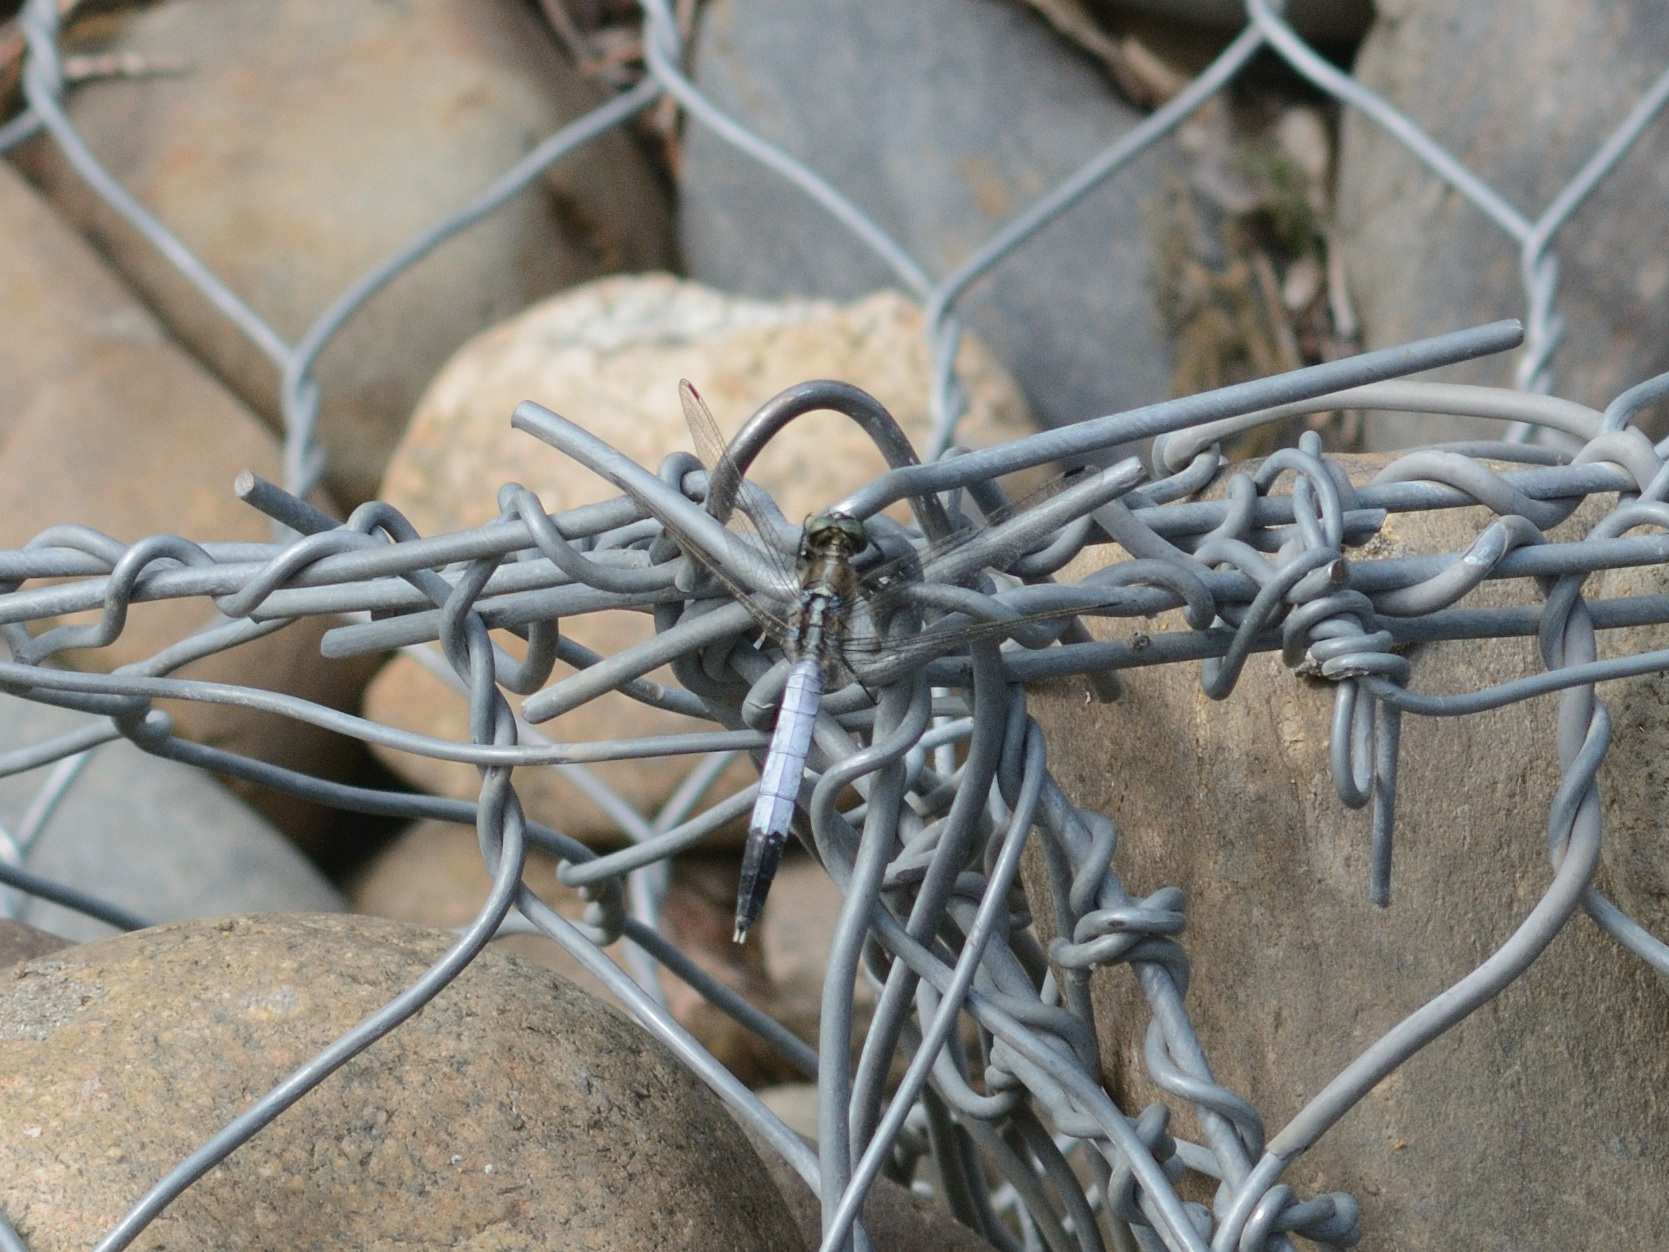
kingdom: Animalia
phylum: Arthropoda
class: Insecta
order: Odonata
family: Libellulidae
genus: Orthetrum
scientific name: Orthetrum albistylum
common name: White-tailed skimmer
